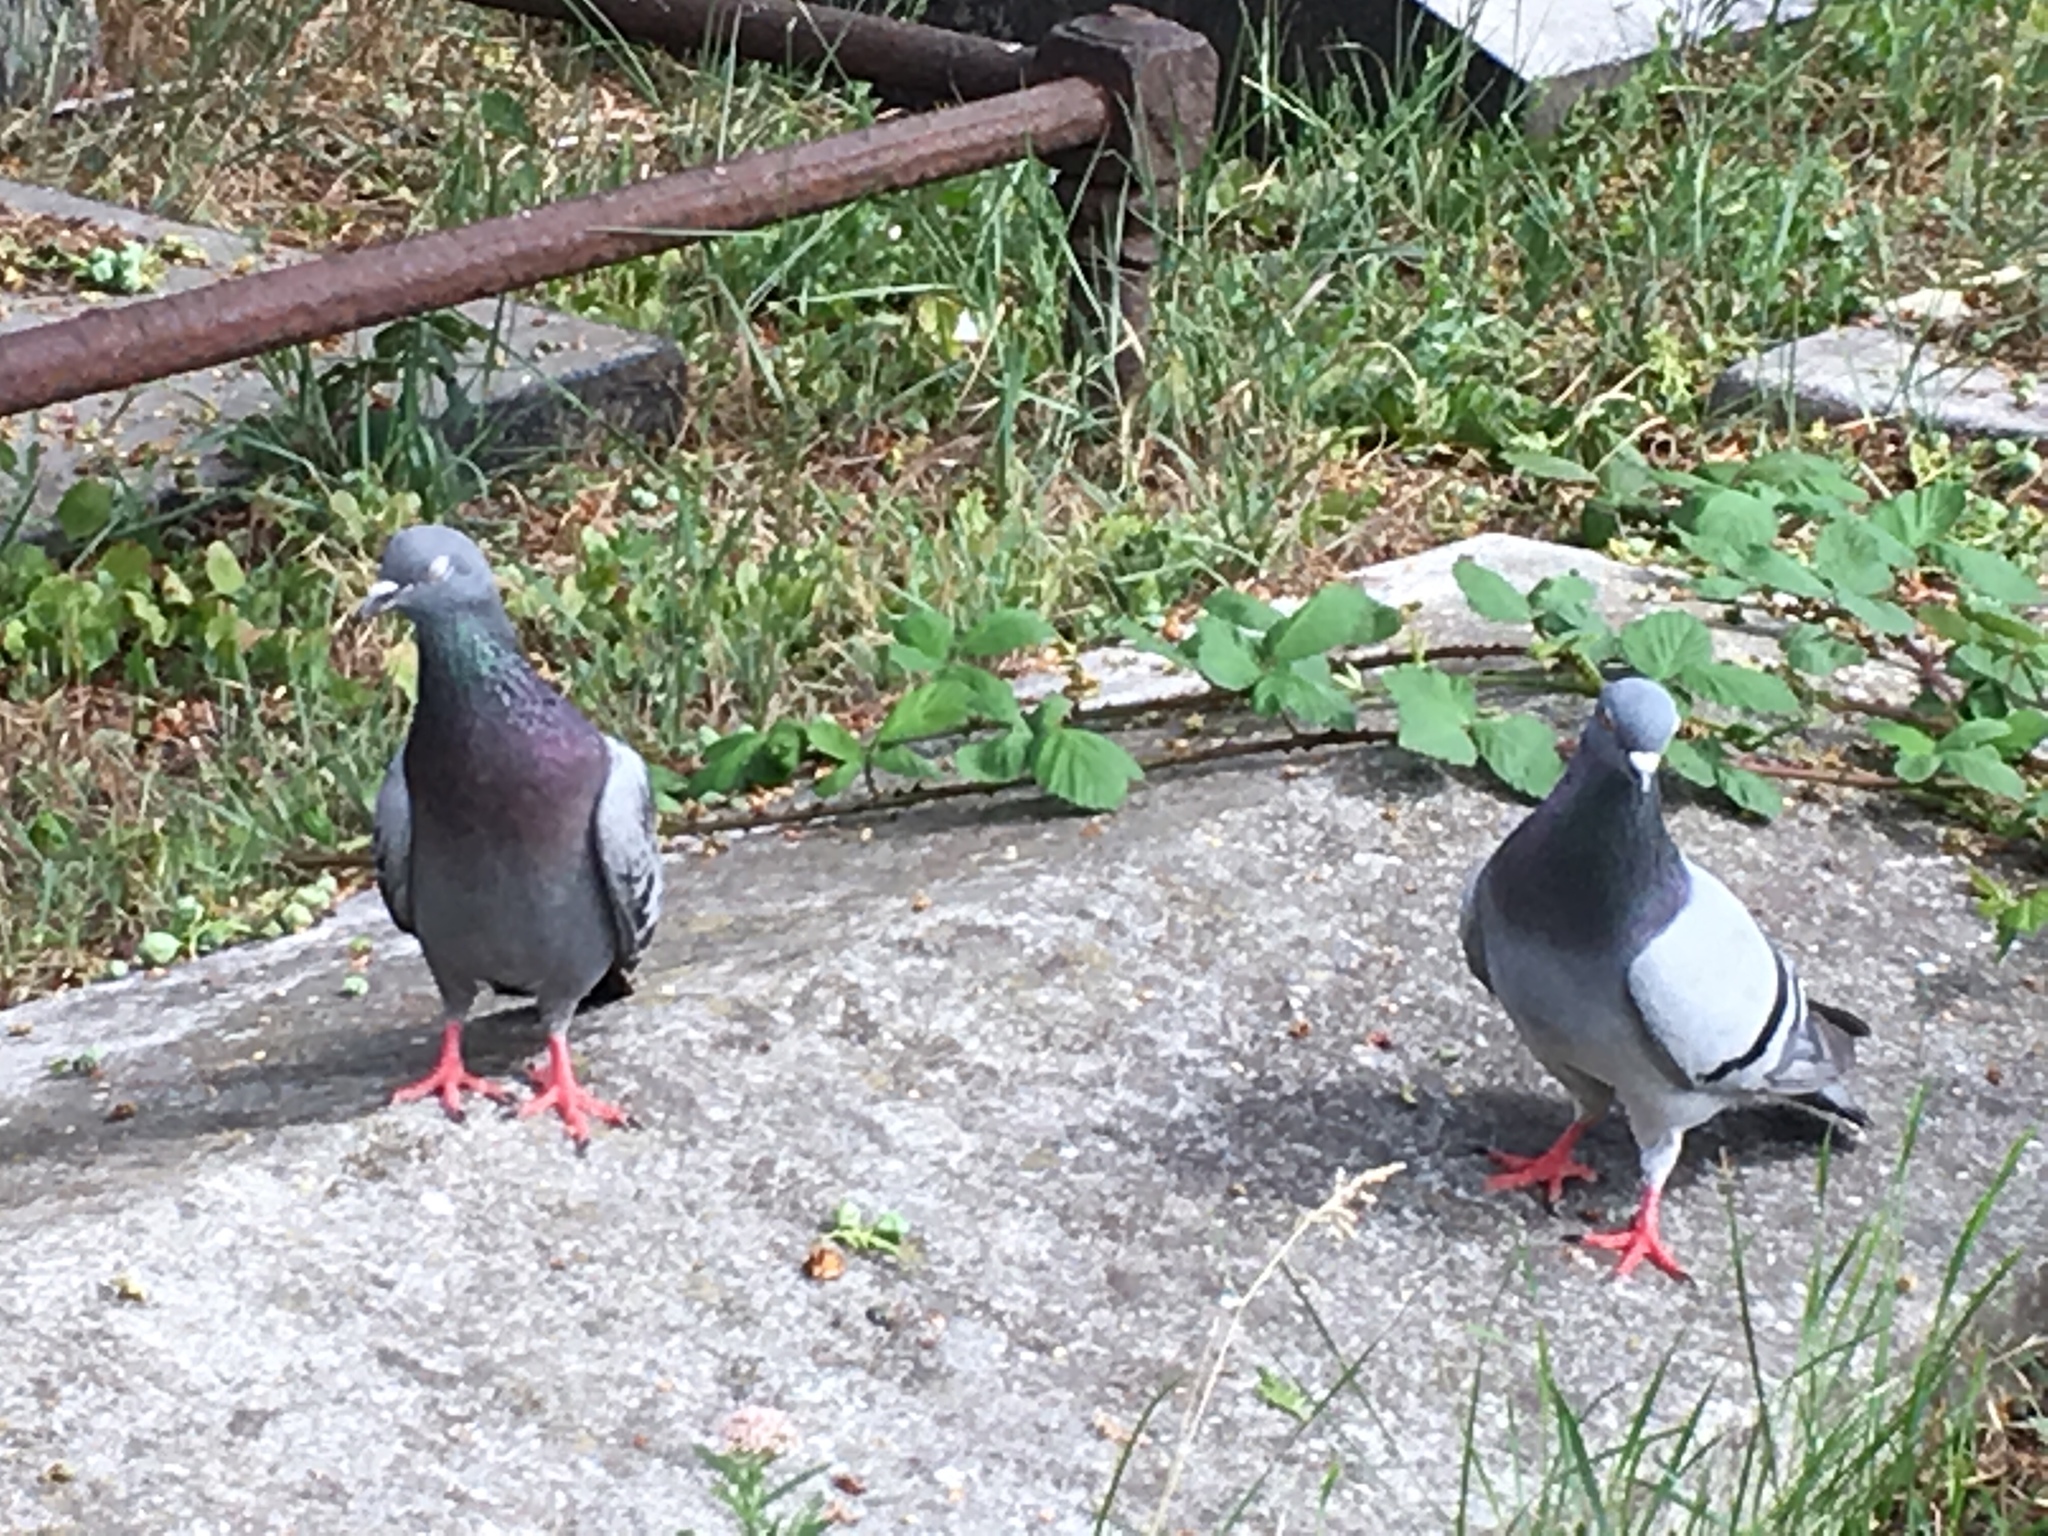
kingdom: Animalia
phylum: Chordata
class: Aves
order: Columbiformes
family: Columbidae
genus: Columba
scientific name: Columba livia
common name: Rock pigeon
